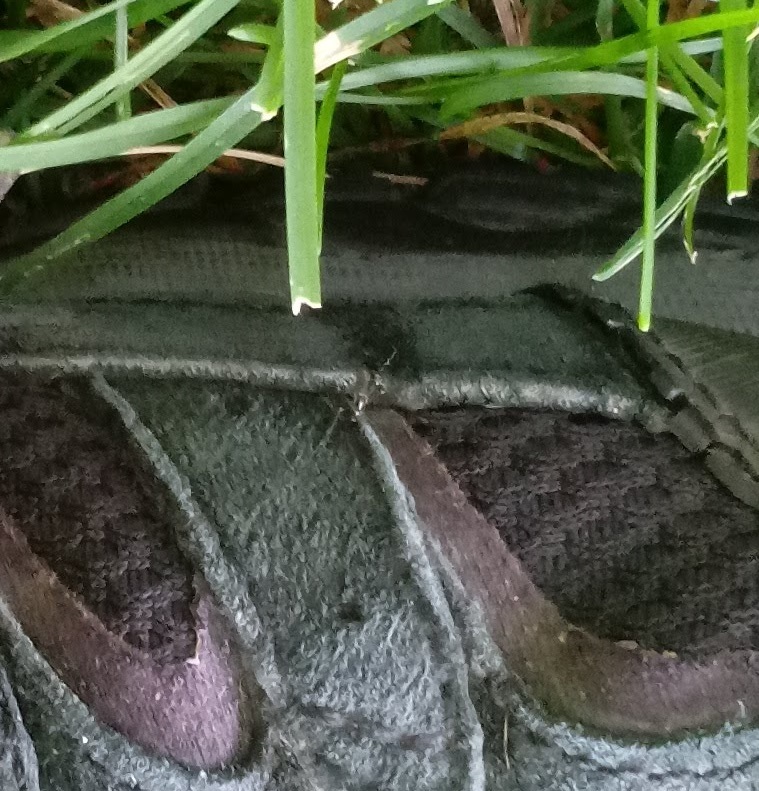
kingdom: Animalia
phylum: Arthropoda
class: Insecta
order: Diptera
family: Culicidae
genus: Aedes
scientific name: Aedes albopictus
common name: Tiger mosquito
